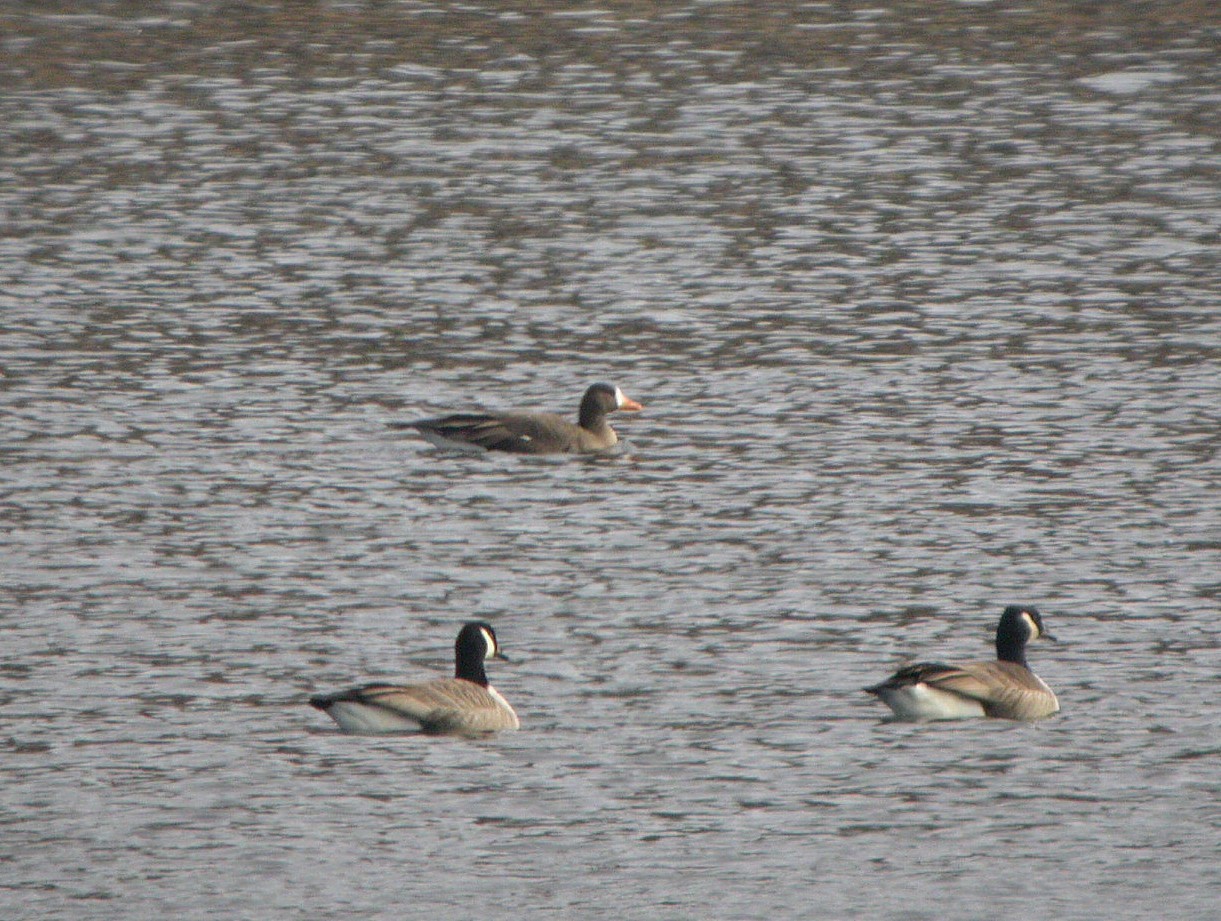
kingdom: Animalia
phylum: Chordata
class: Aves
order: Anseriformes
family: Anatidae
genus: Anser
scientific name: Anser albifrons
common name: Greater white-fronted goose
